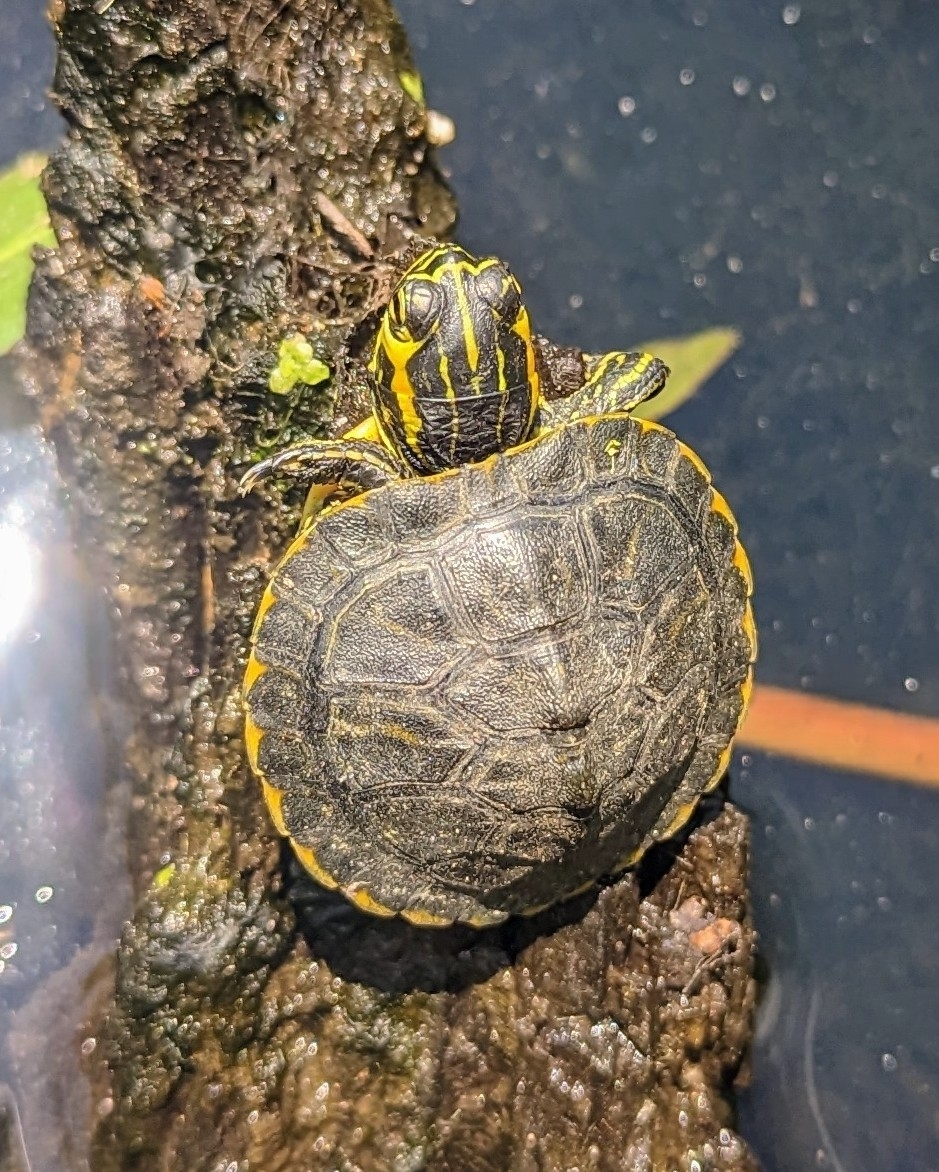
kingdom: Animalia
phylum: Chordata
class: Testudines
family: Emydidae
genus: Trachemys
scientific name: Trachemys scripta
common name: Slider
